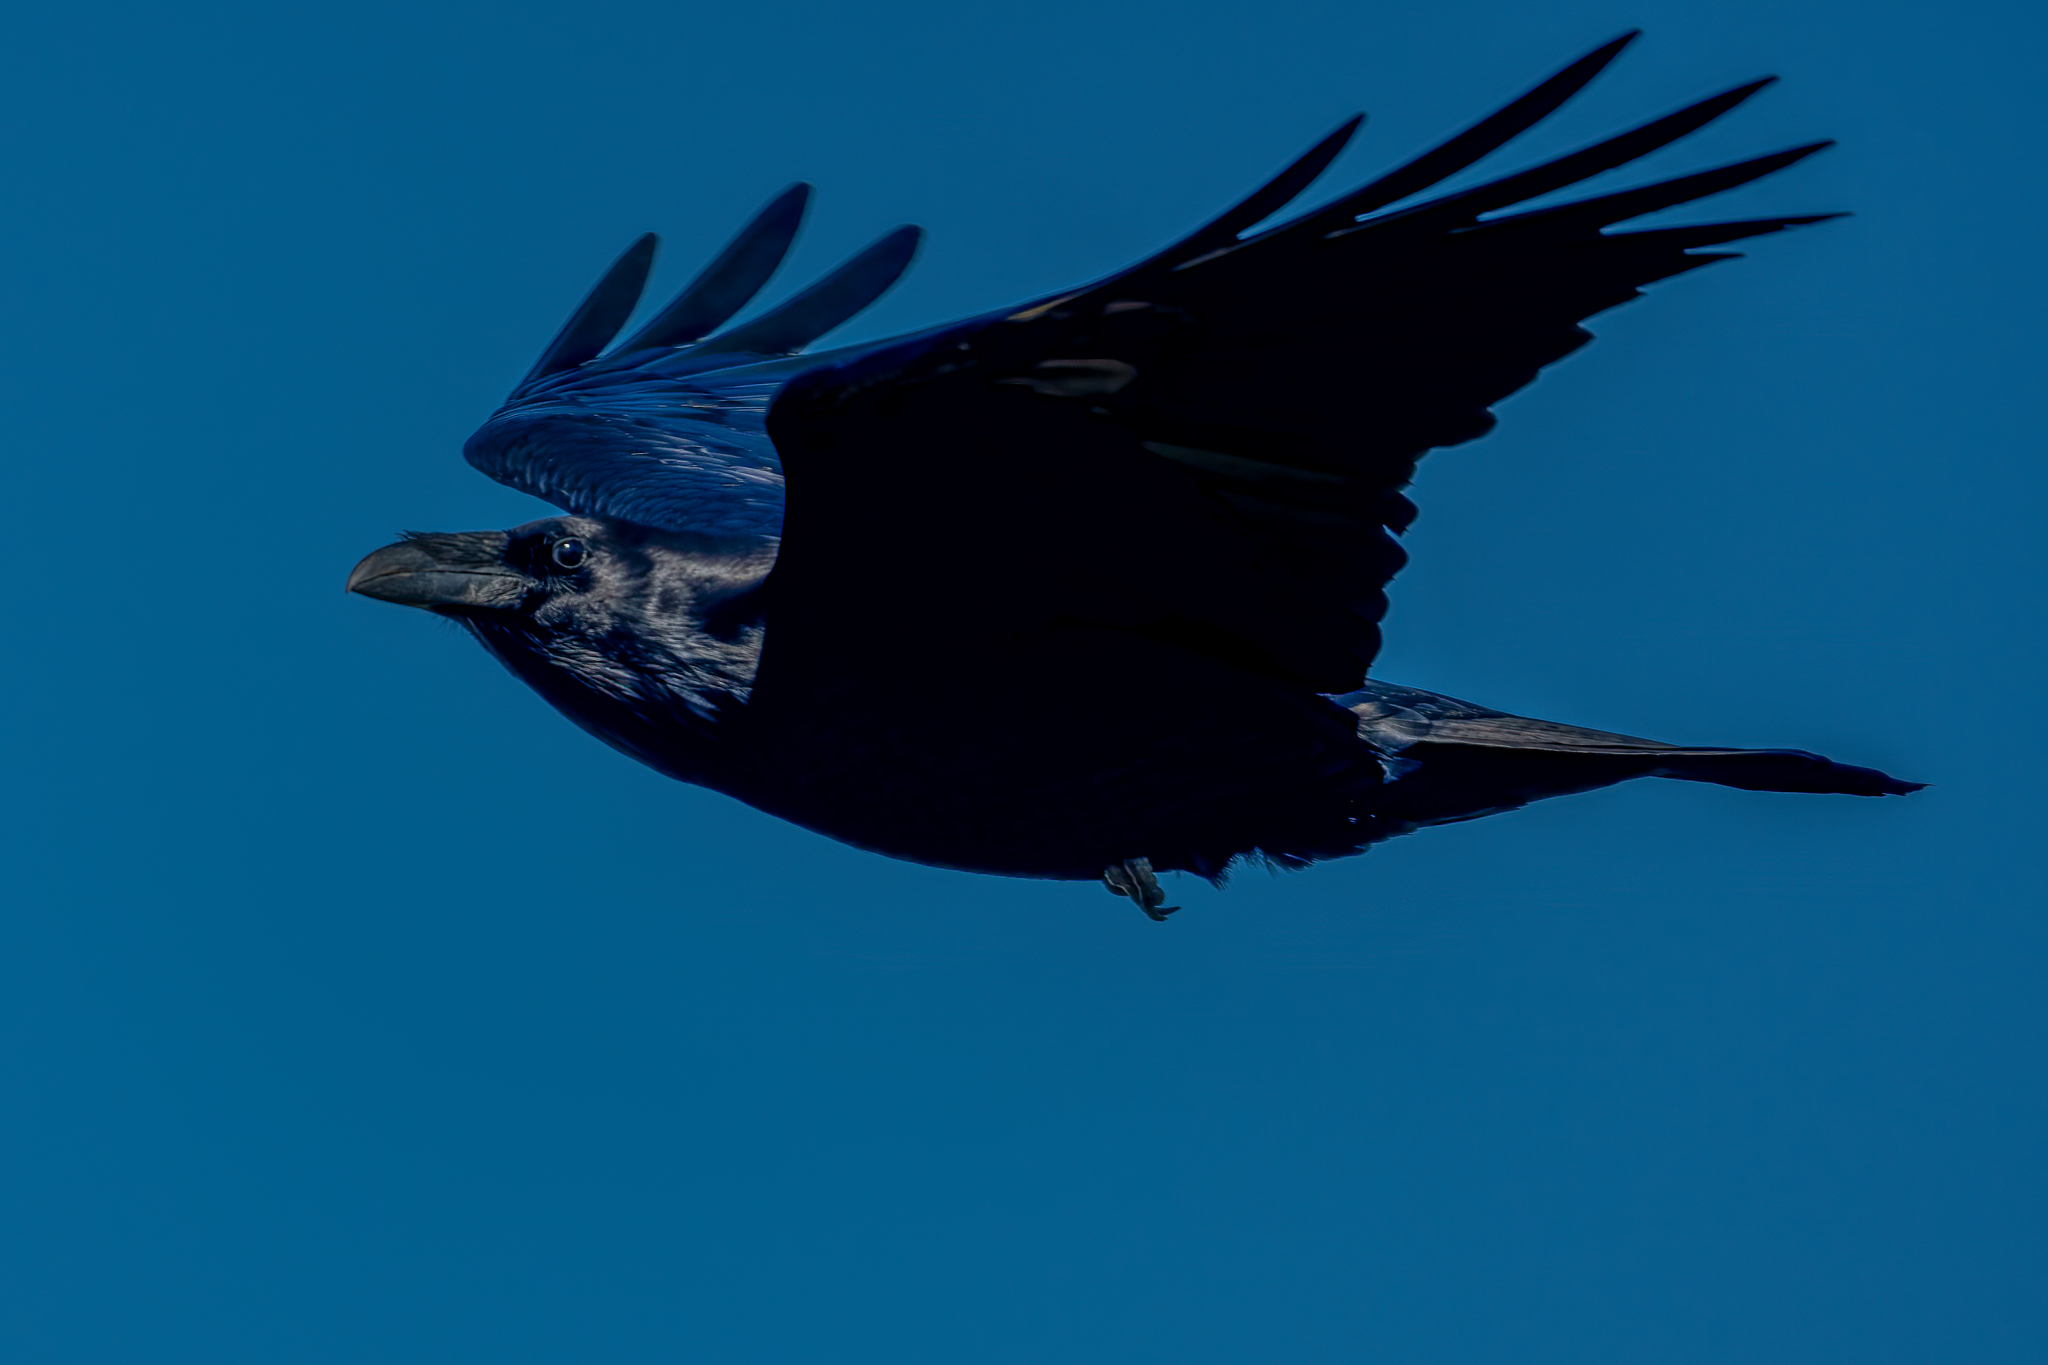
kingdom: Animalia
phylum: Chordata
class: Aves
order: Passeriformes
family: Corvidae
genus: Corvus
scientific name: Corvus corax
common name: Common raven
